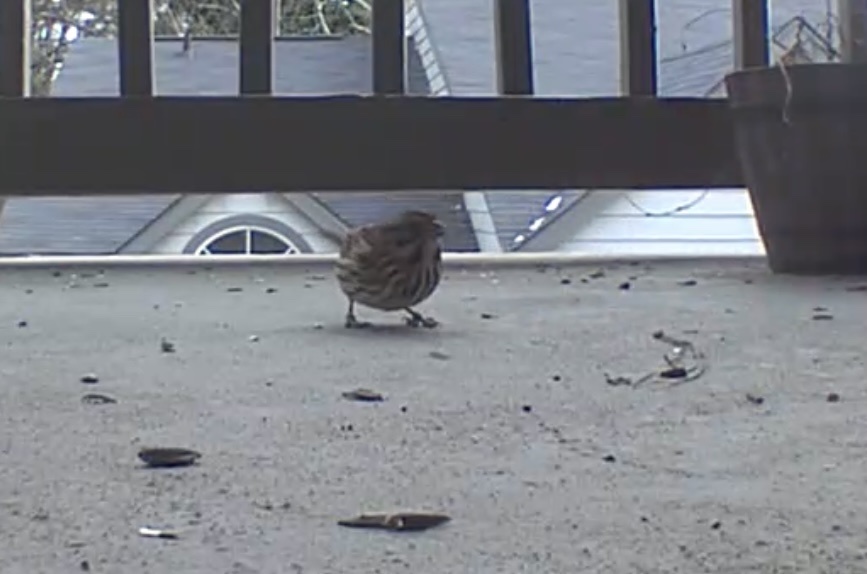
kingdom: Animalia
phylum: Chordata
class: Aves
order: Passeriformes
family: Passerellidae
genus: Melospiza
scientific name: Melospiza melodia
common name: Song sparrow
